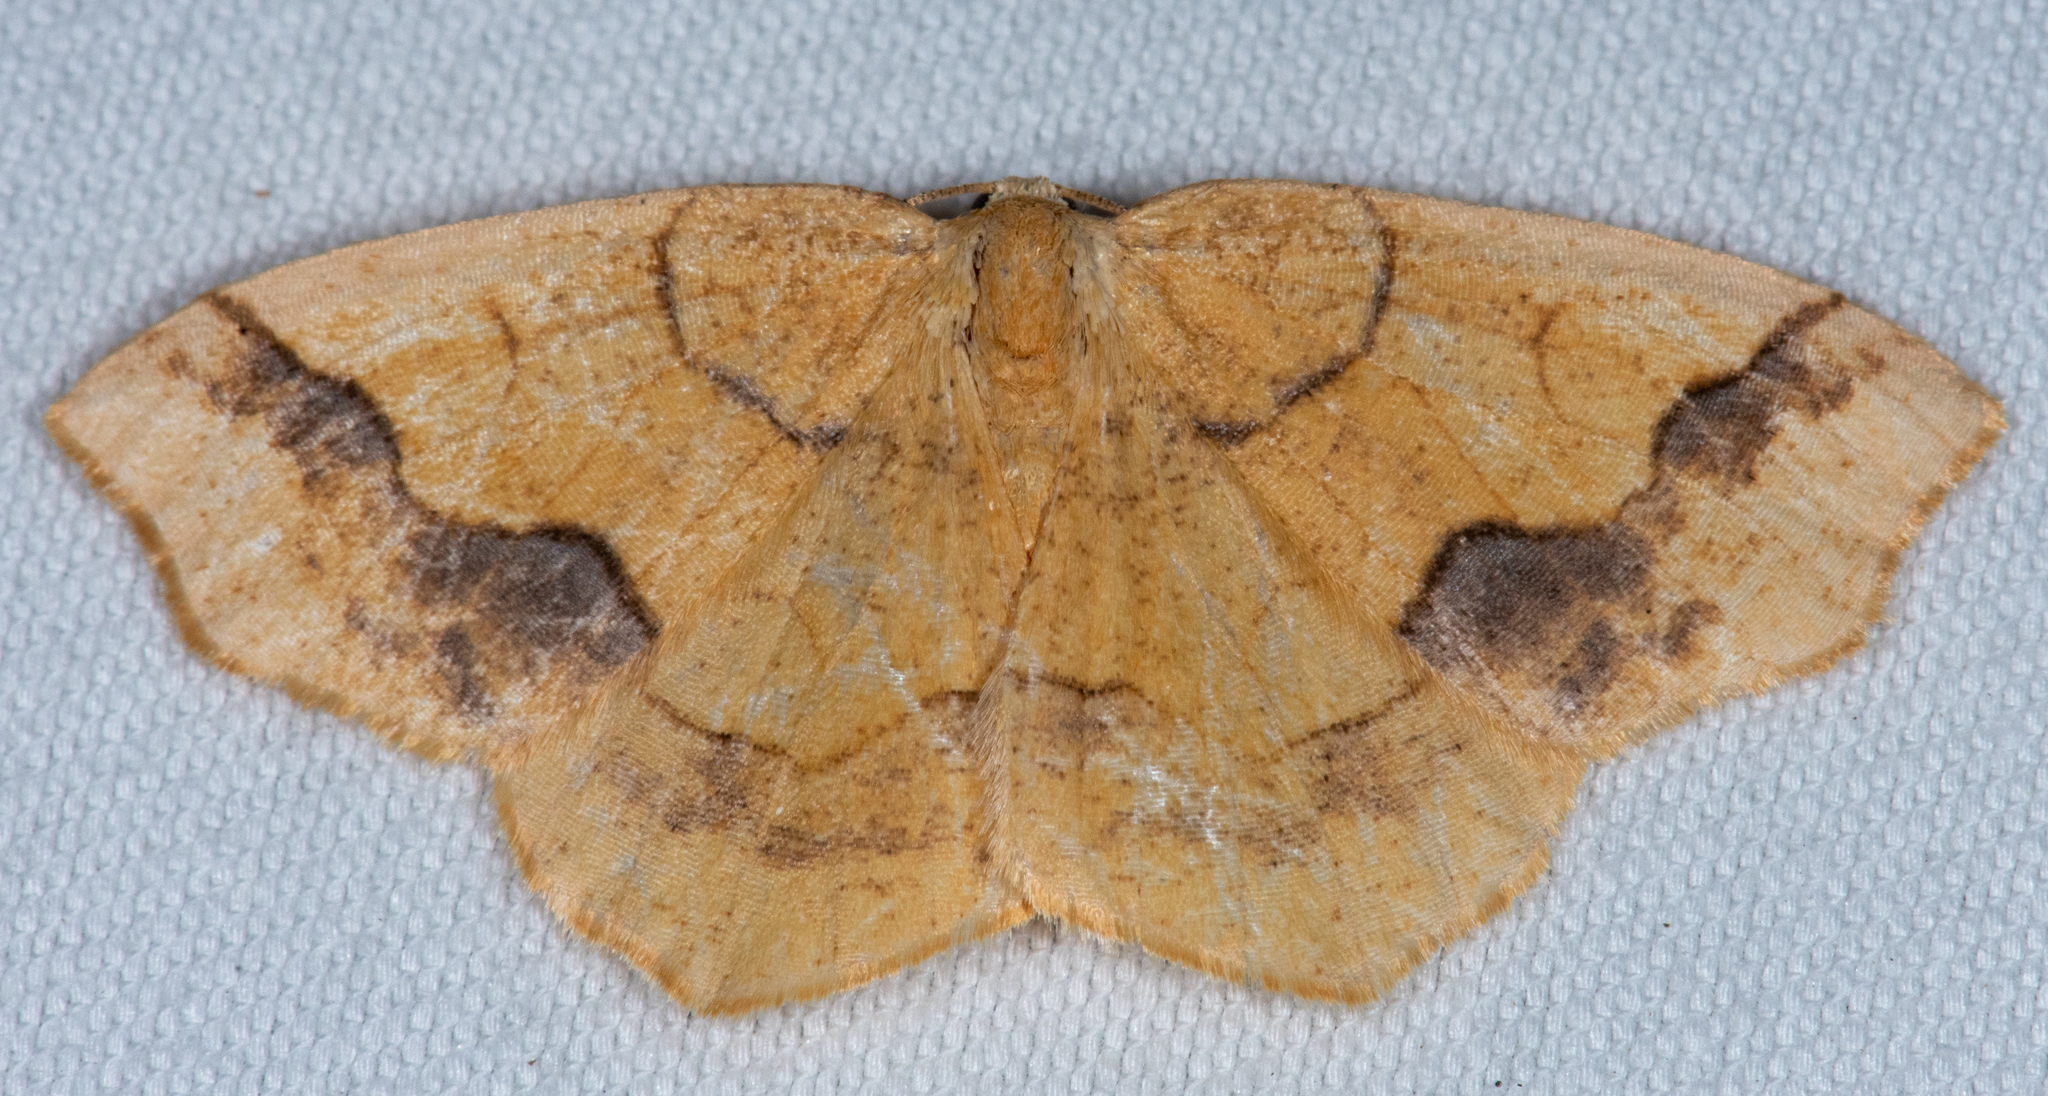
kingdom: Animalia
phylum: Arthropoda
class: Insecta
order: Lepidoptera
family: Geometridae
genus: Nematocampa
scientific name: Nematocampa brehmeata
